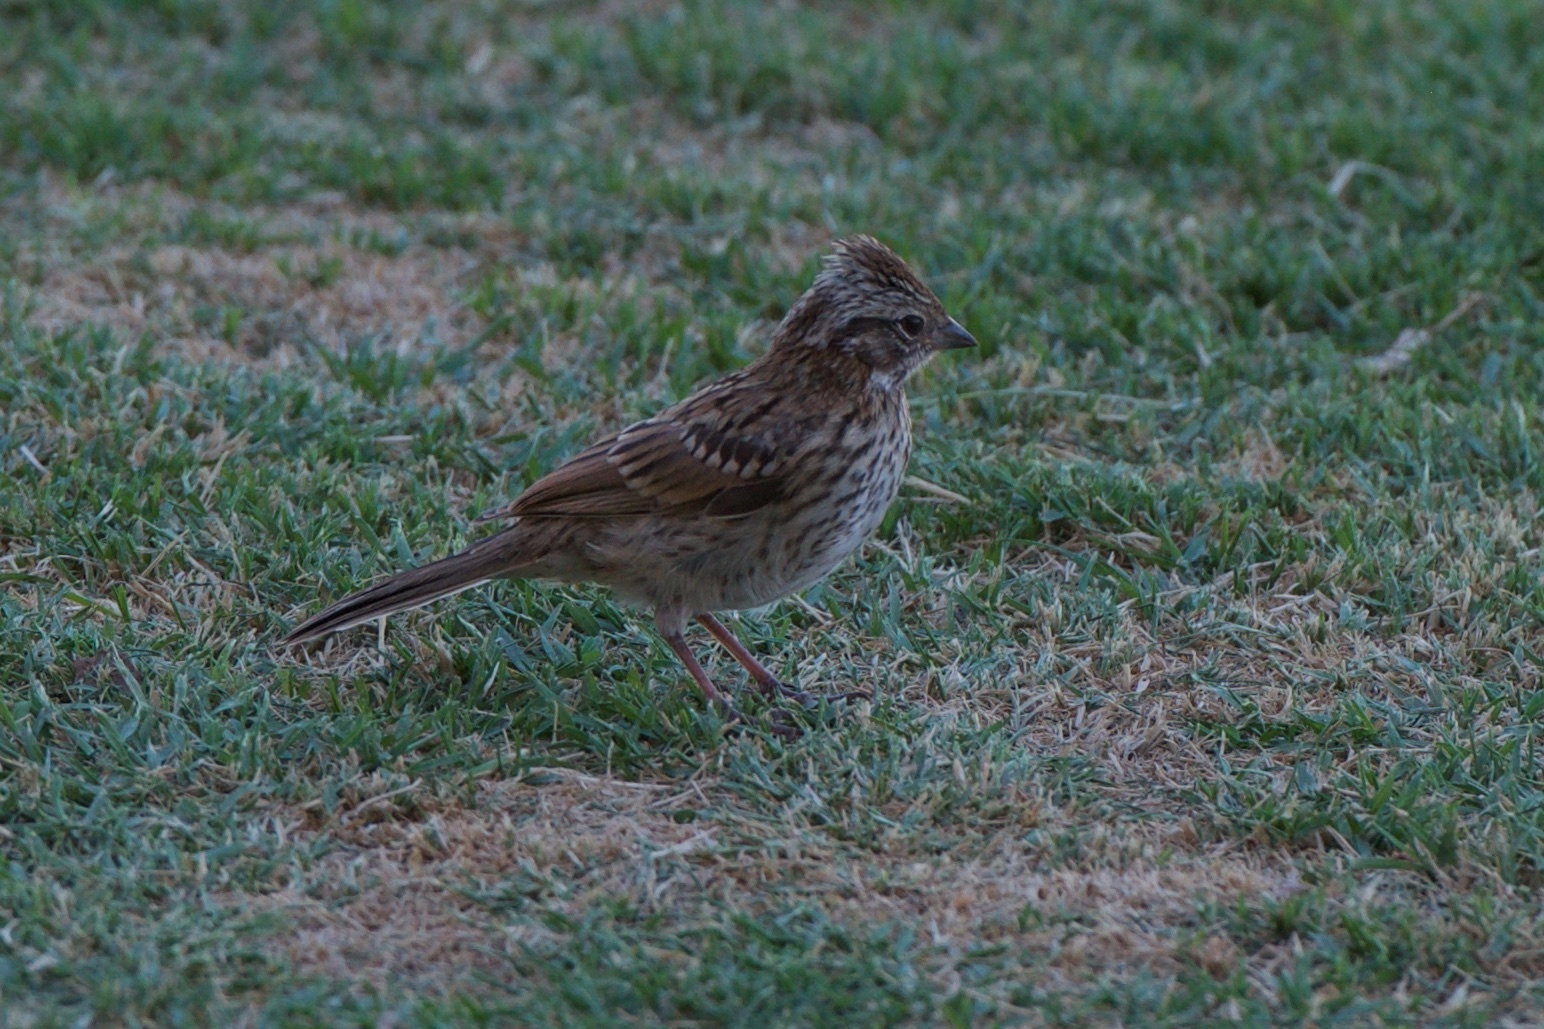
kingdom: Animalia
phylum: Chordata
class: Aves
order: Passeriformes
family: Passerellidae
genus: Zonotrichia
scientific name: Zonotrichia capensis
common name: Rufous-collared sparrow
